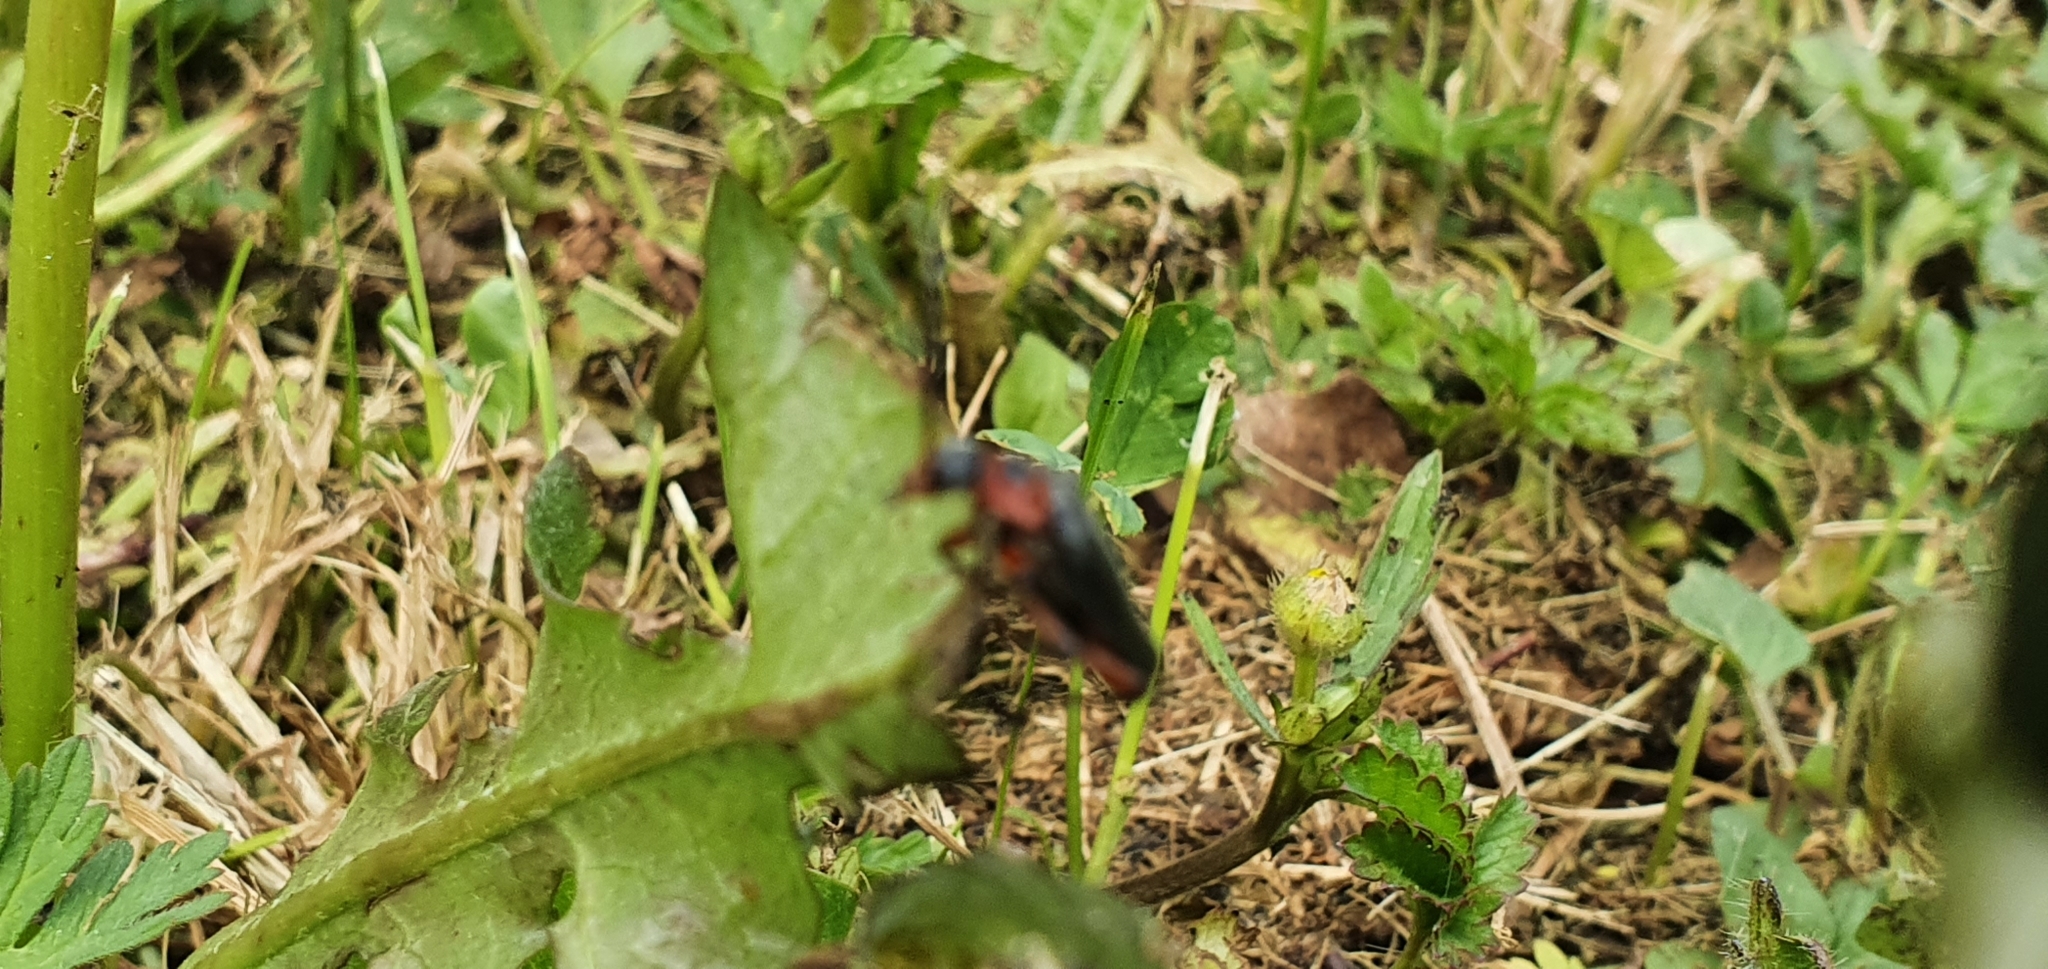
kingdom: Animalia
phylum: Arthropoda
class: Insecta
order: Coleoptera
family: Cantharidae
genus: Cantharis
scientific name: Cantharis rustica
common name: Soldier beetle
